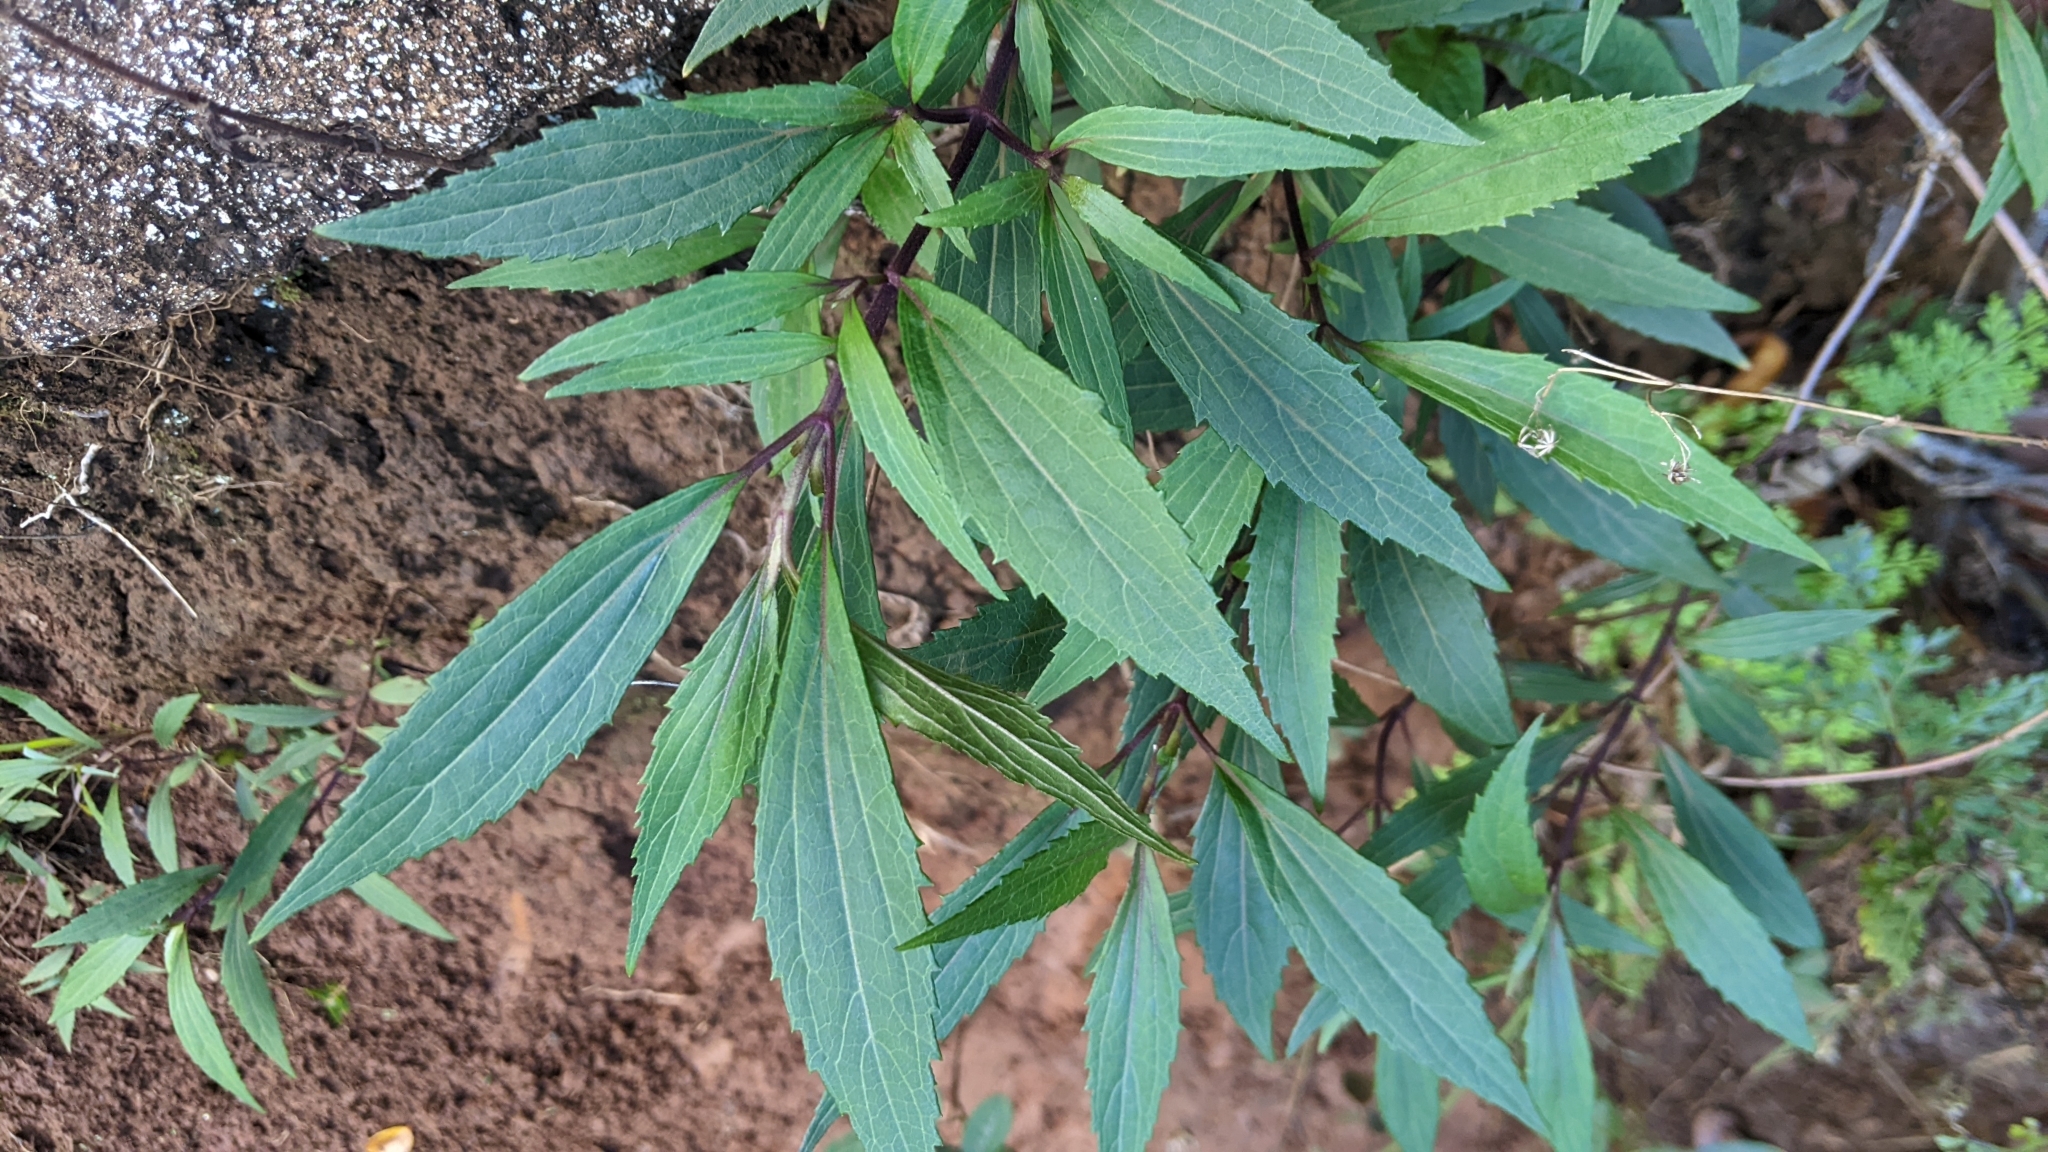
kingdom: Plantae
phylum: Tracheophyta
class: Magnoliopsida
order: Asterales
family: Asteraceae
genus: Ageratina
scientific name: Ageratina riparia
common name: Creeping croftonweed
